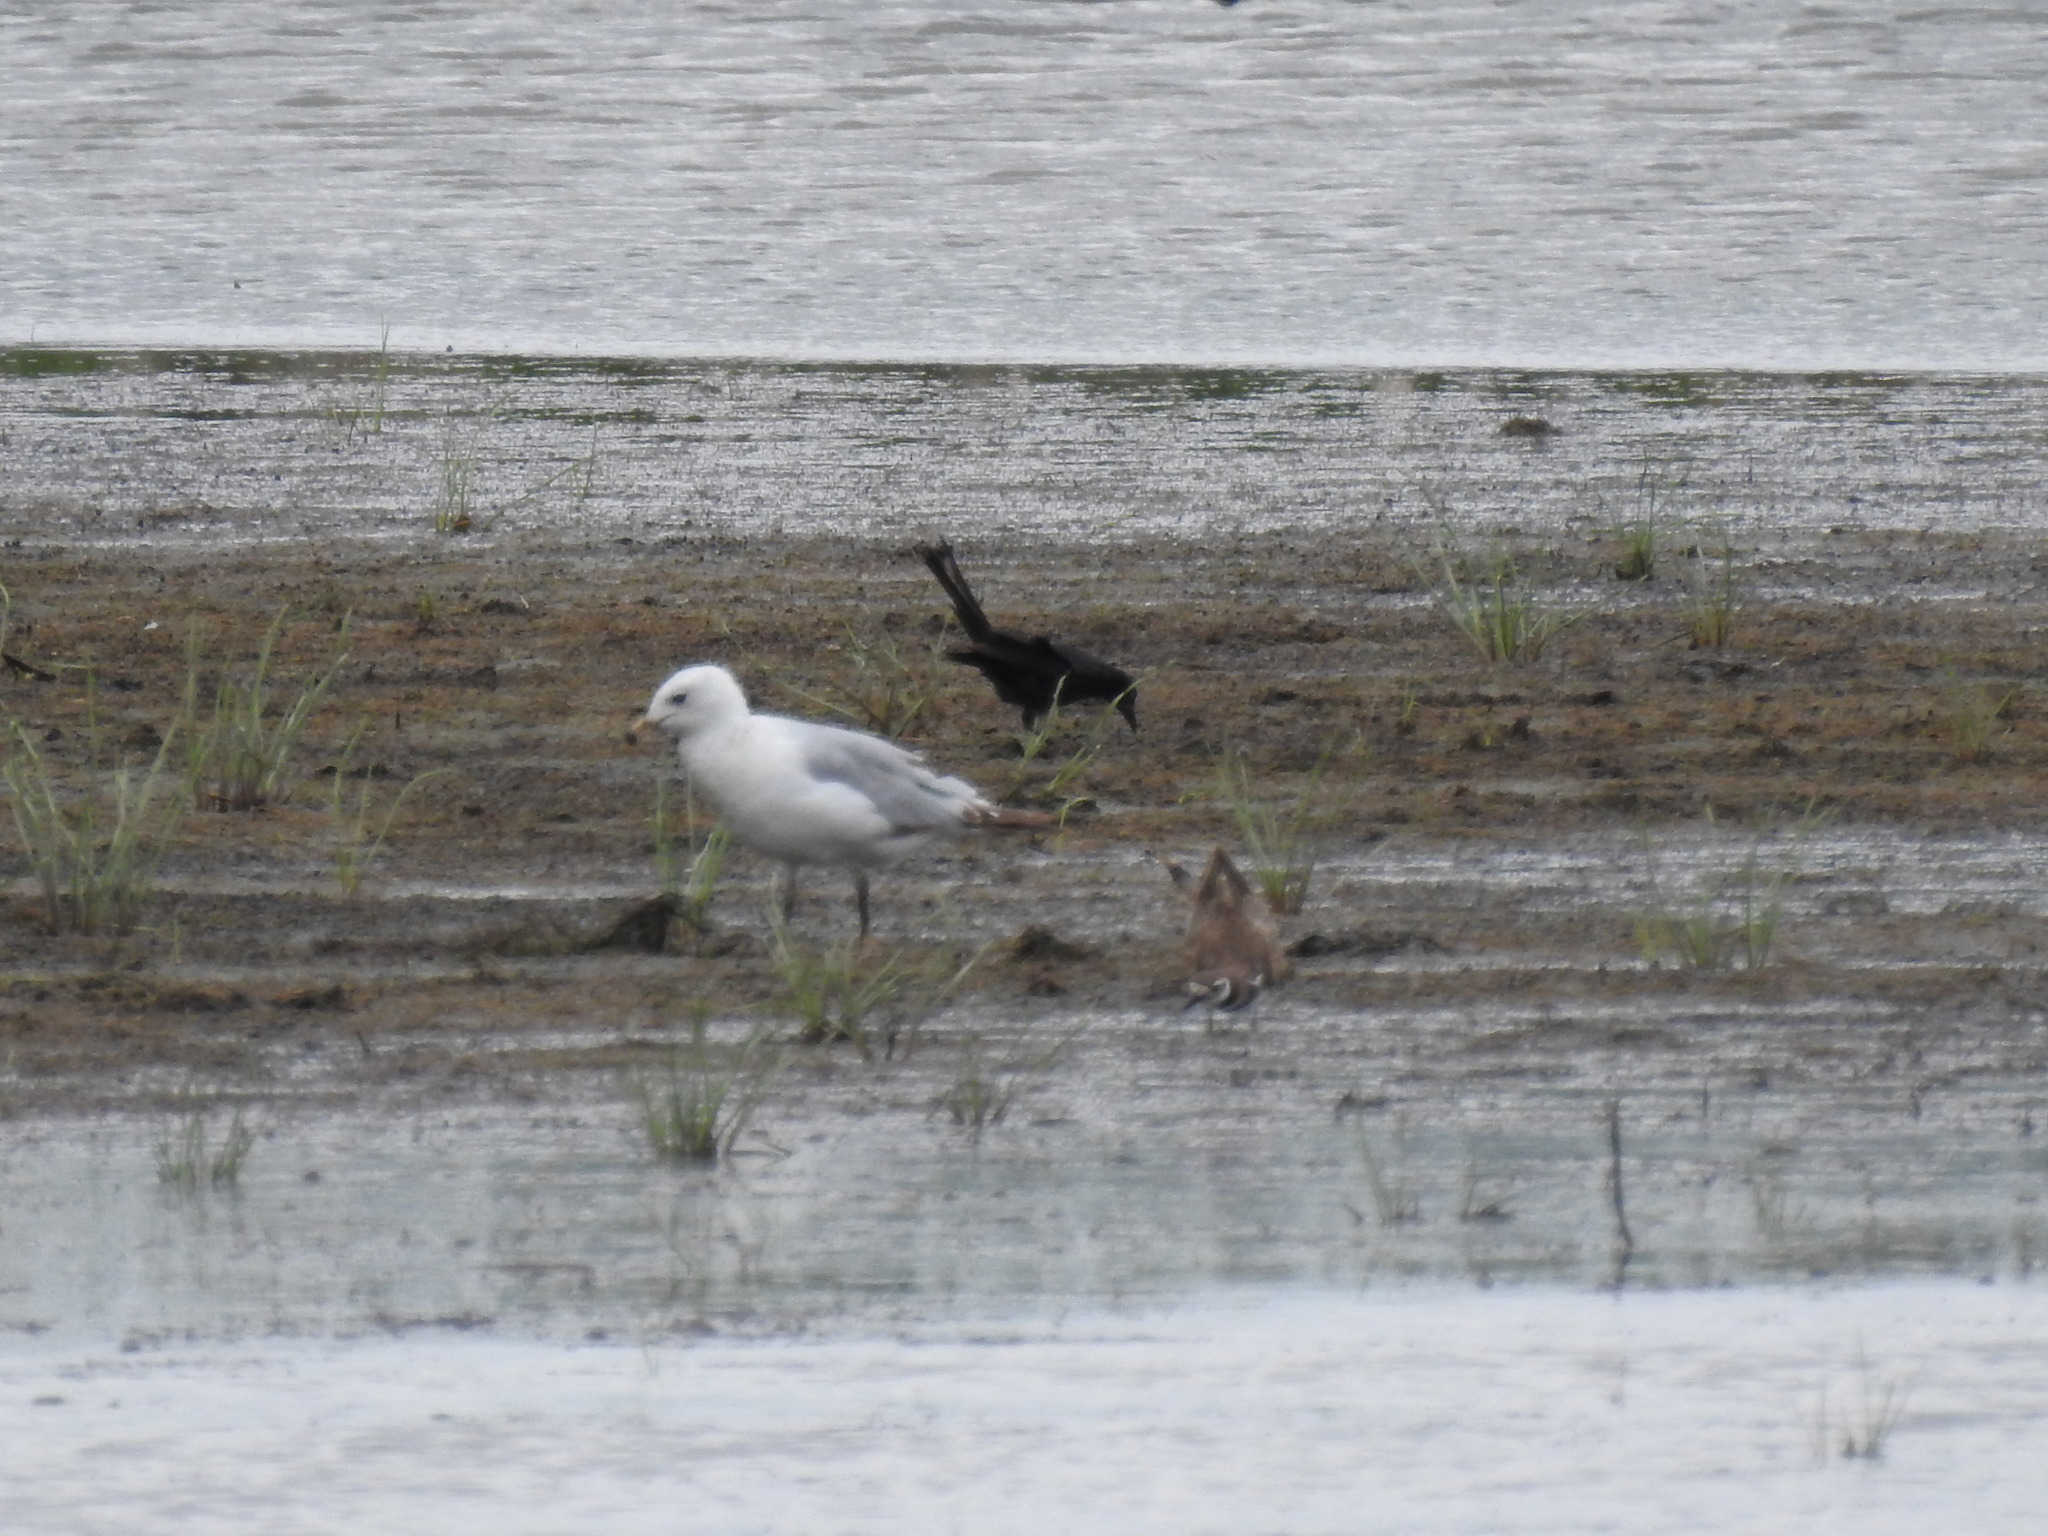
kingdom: Animalia
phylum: Chordata
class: Aves
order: Passeriformes
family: Icteridae
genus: Quiscalus
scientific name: Quiscalus quiscula
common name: Common grackle
